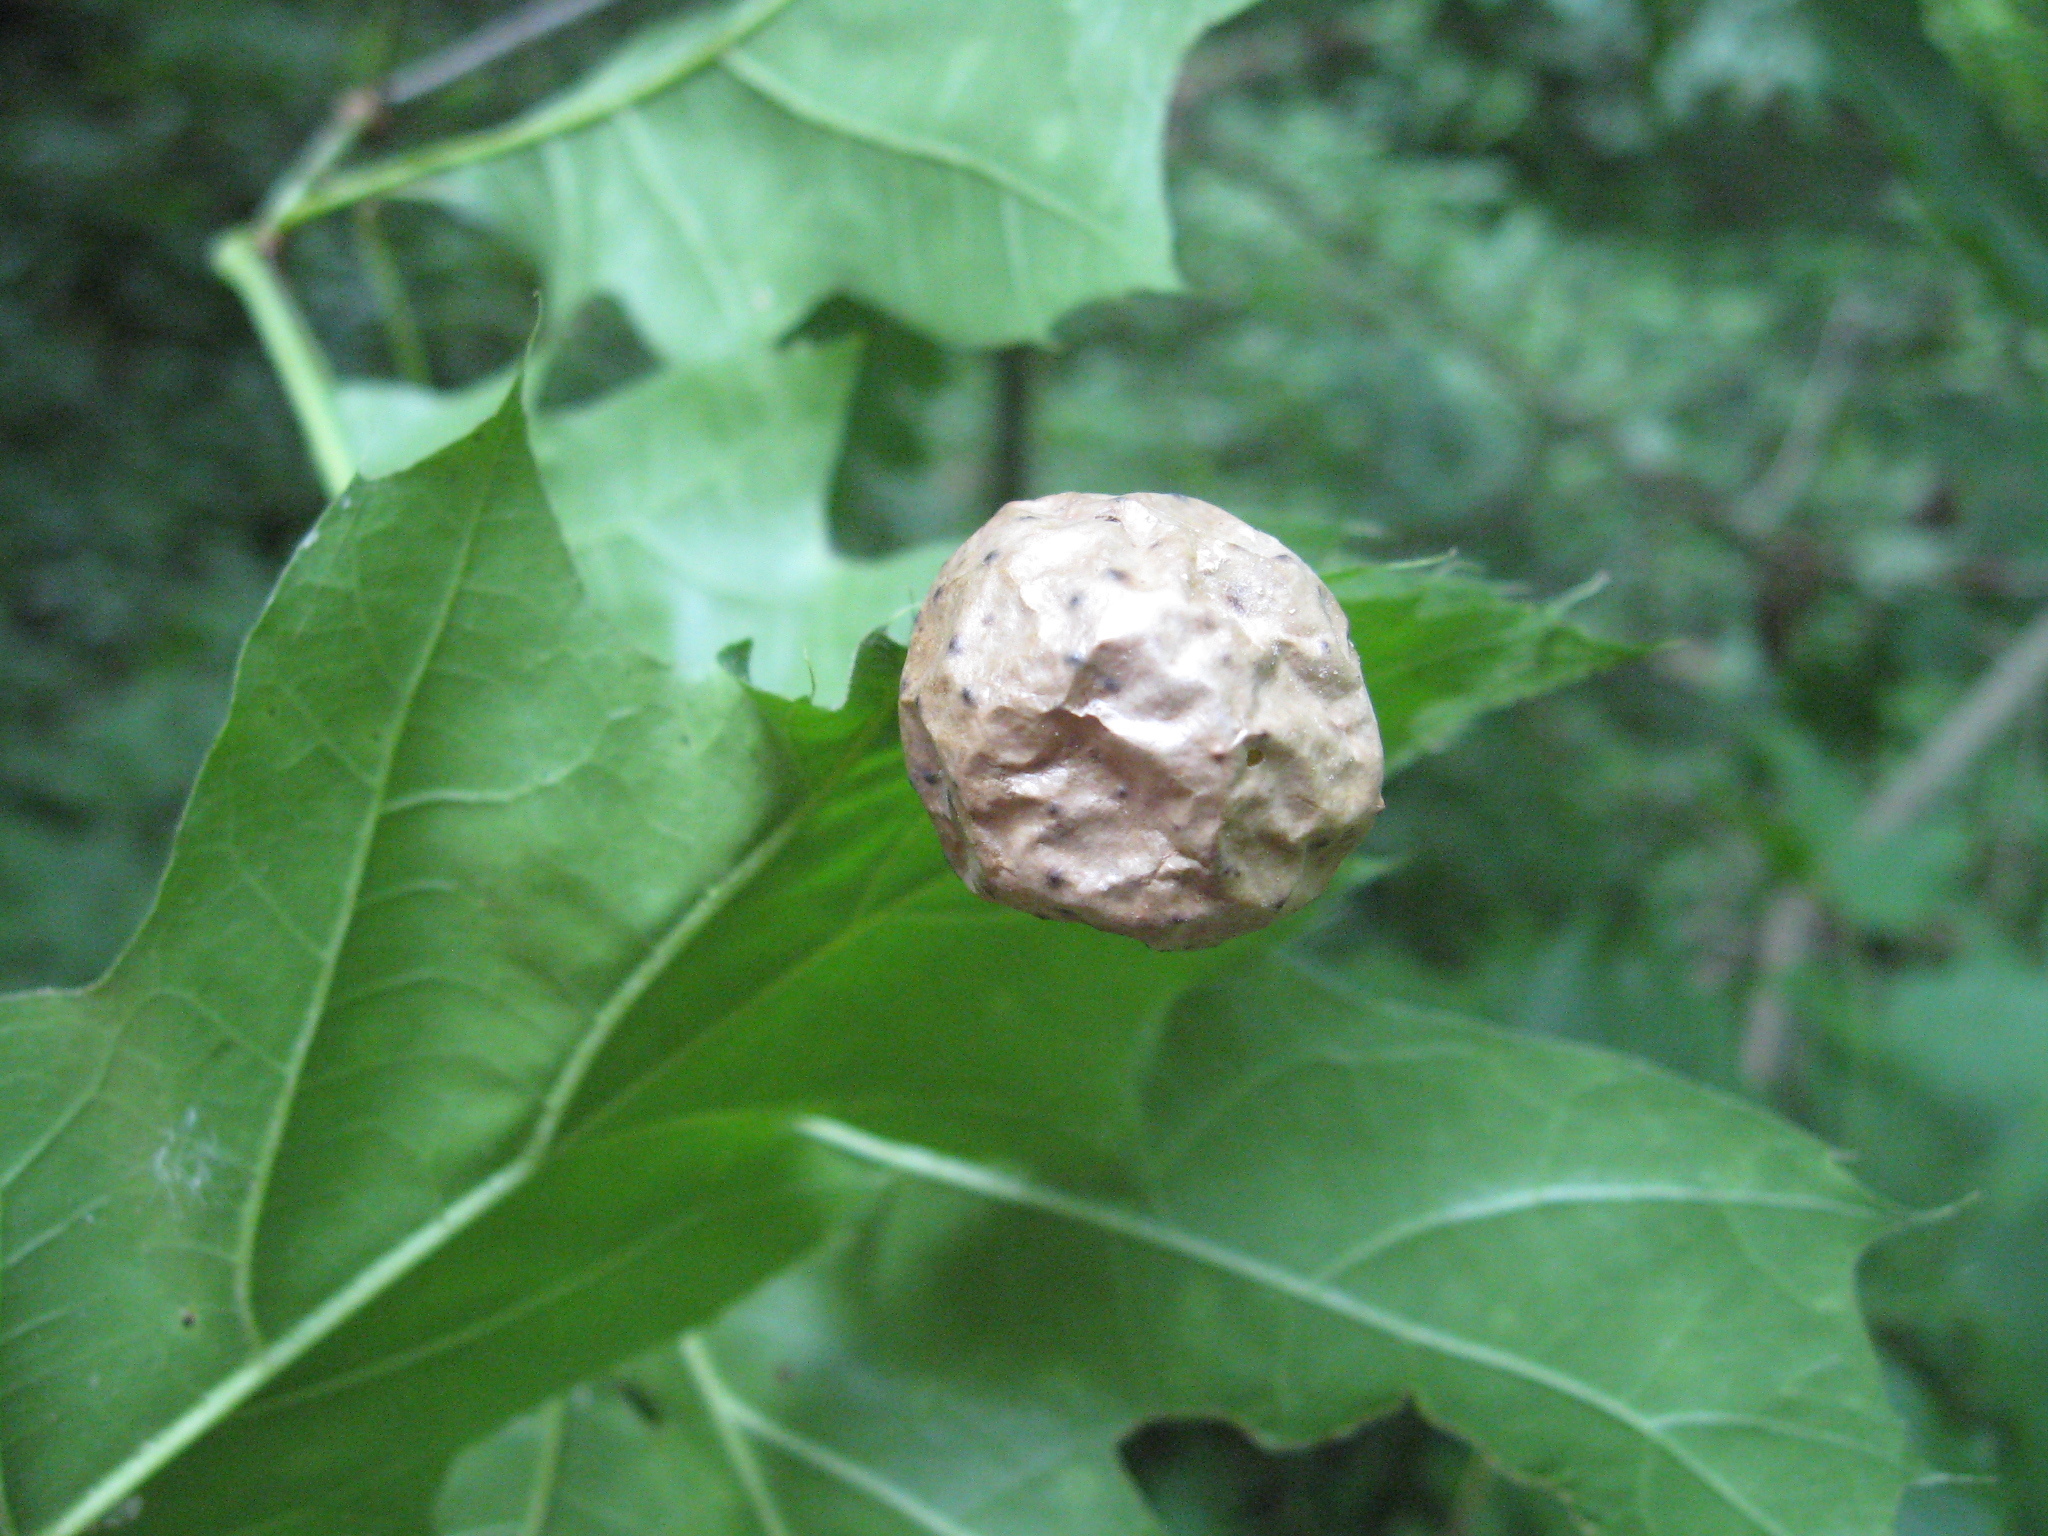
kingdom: Animalia
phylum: Arthropoda
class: Insecta
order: Hymenoptera
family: Cynipidae
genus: Amphibolips
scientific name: Amphibolips
